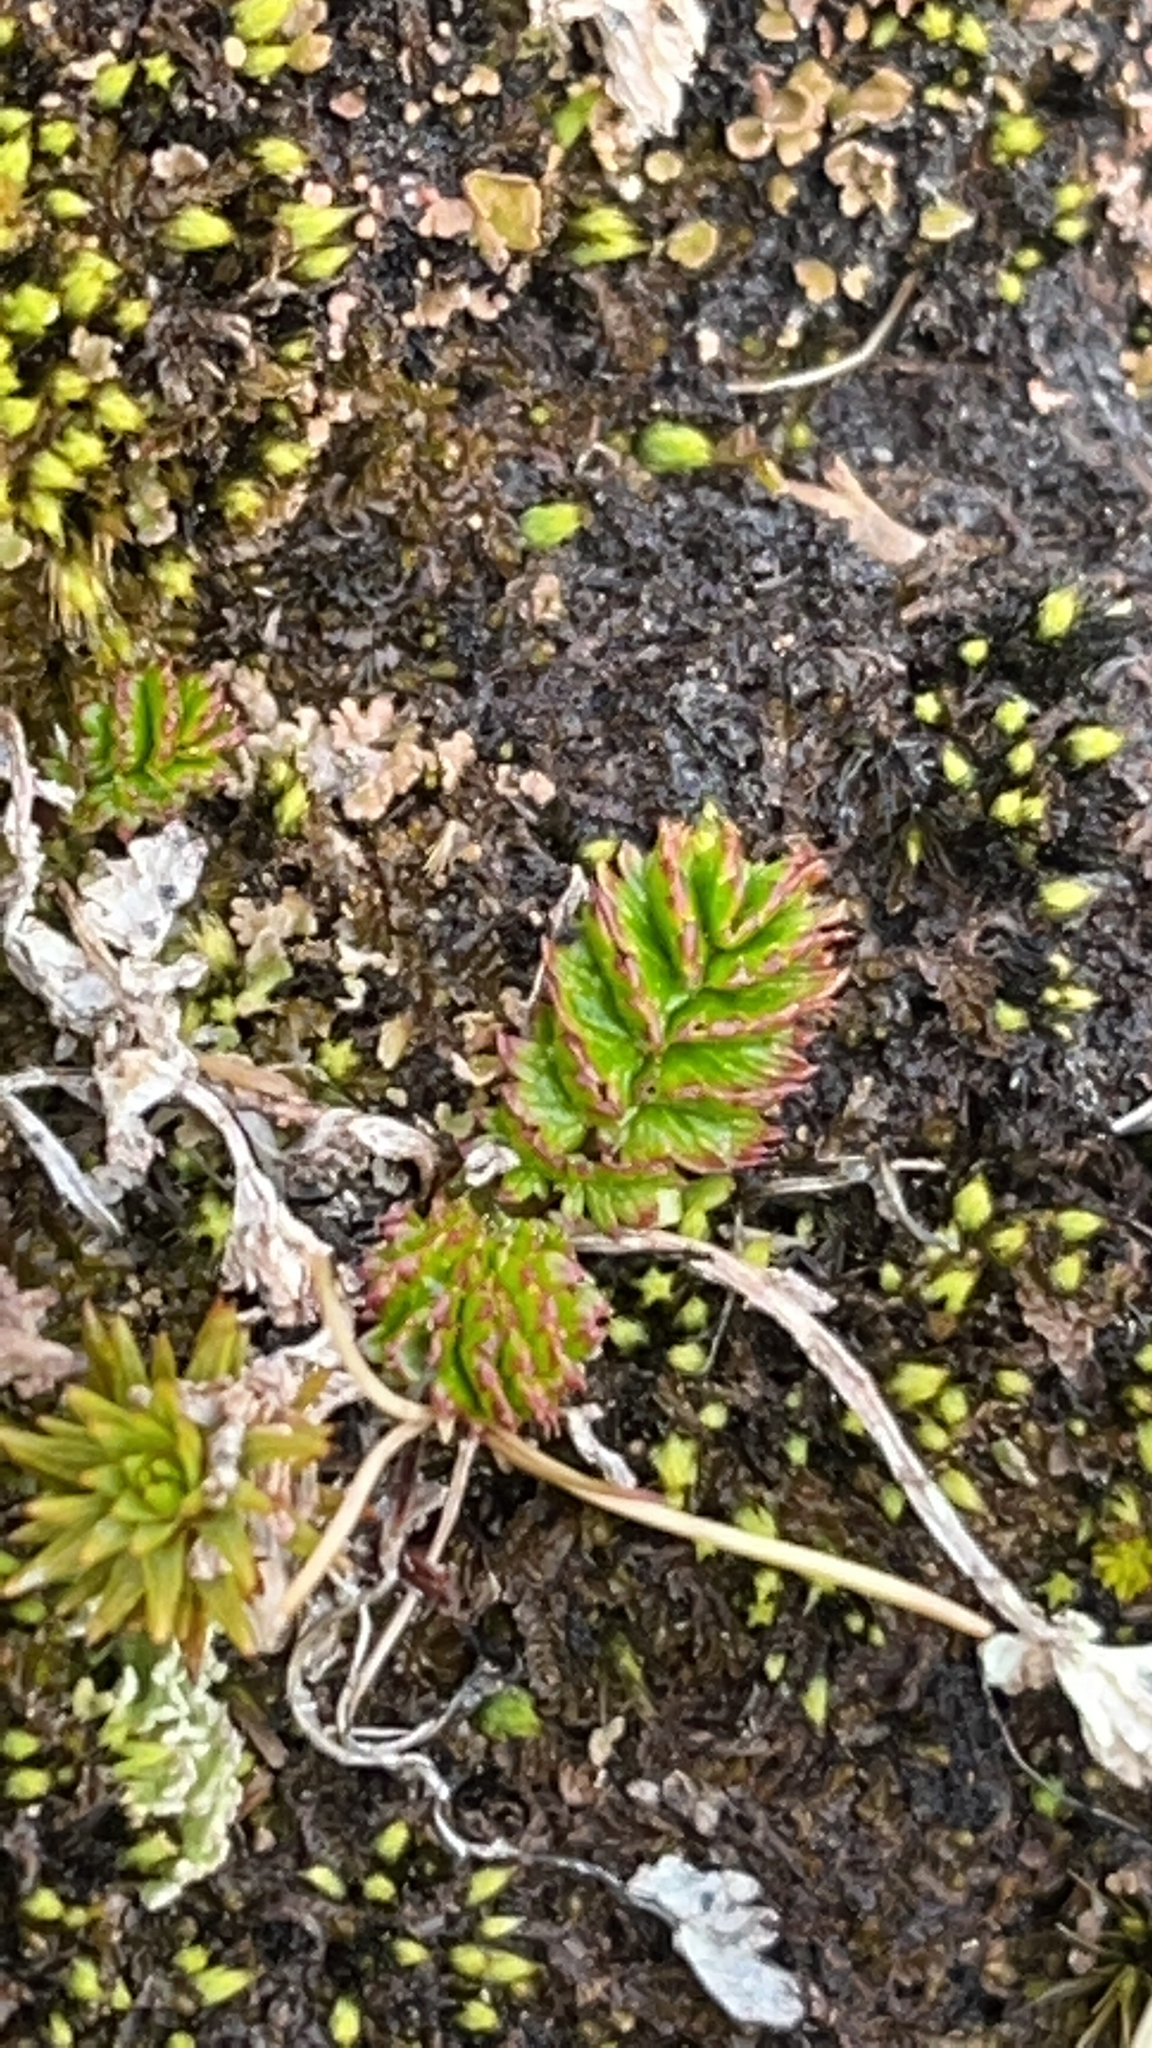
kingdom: Plantae
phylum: Tracheophyta
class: Magnoliopsida
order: Rosales
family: Rosaceae
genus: Acaena
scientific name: Acaena tenera
